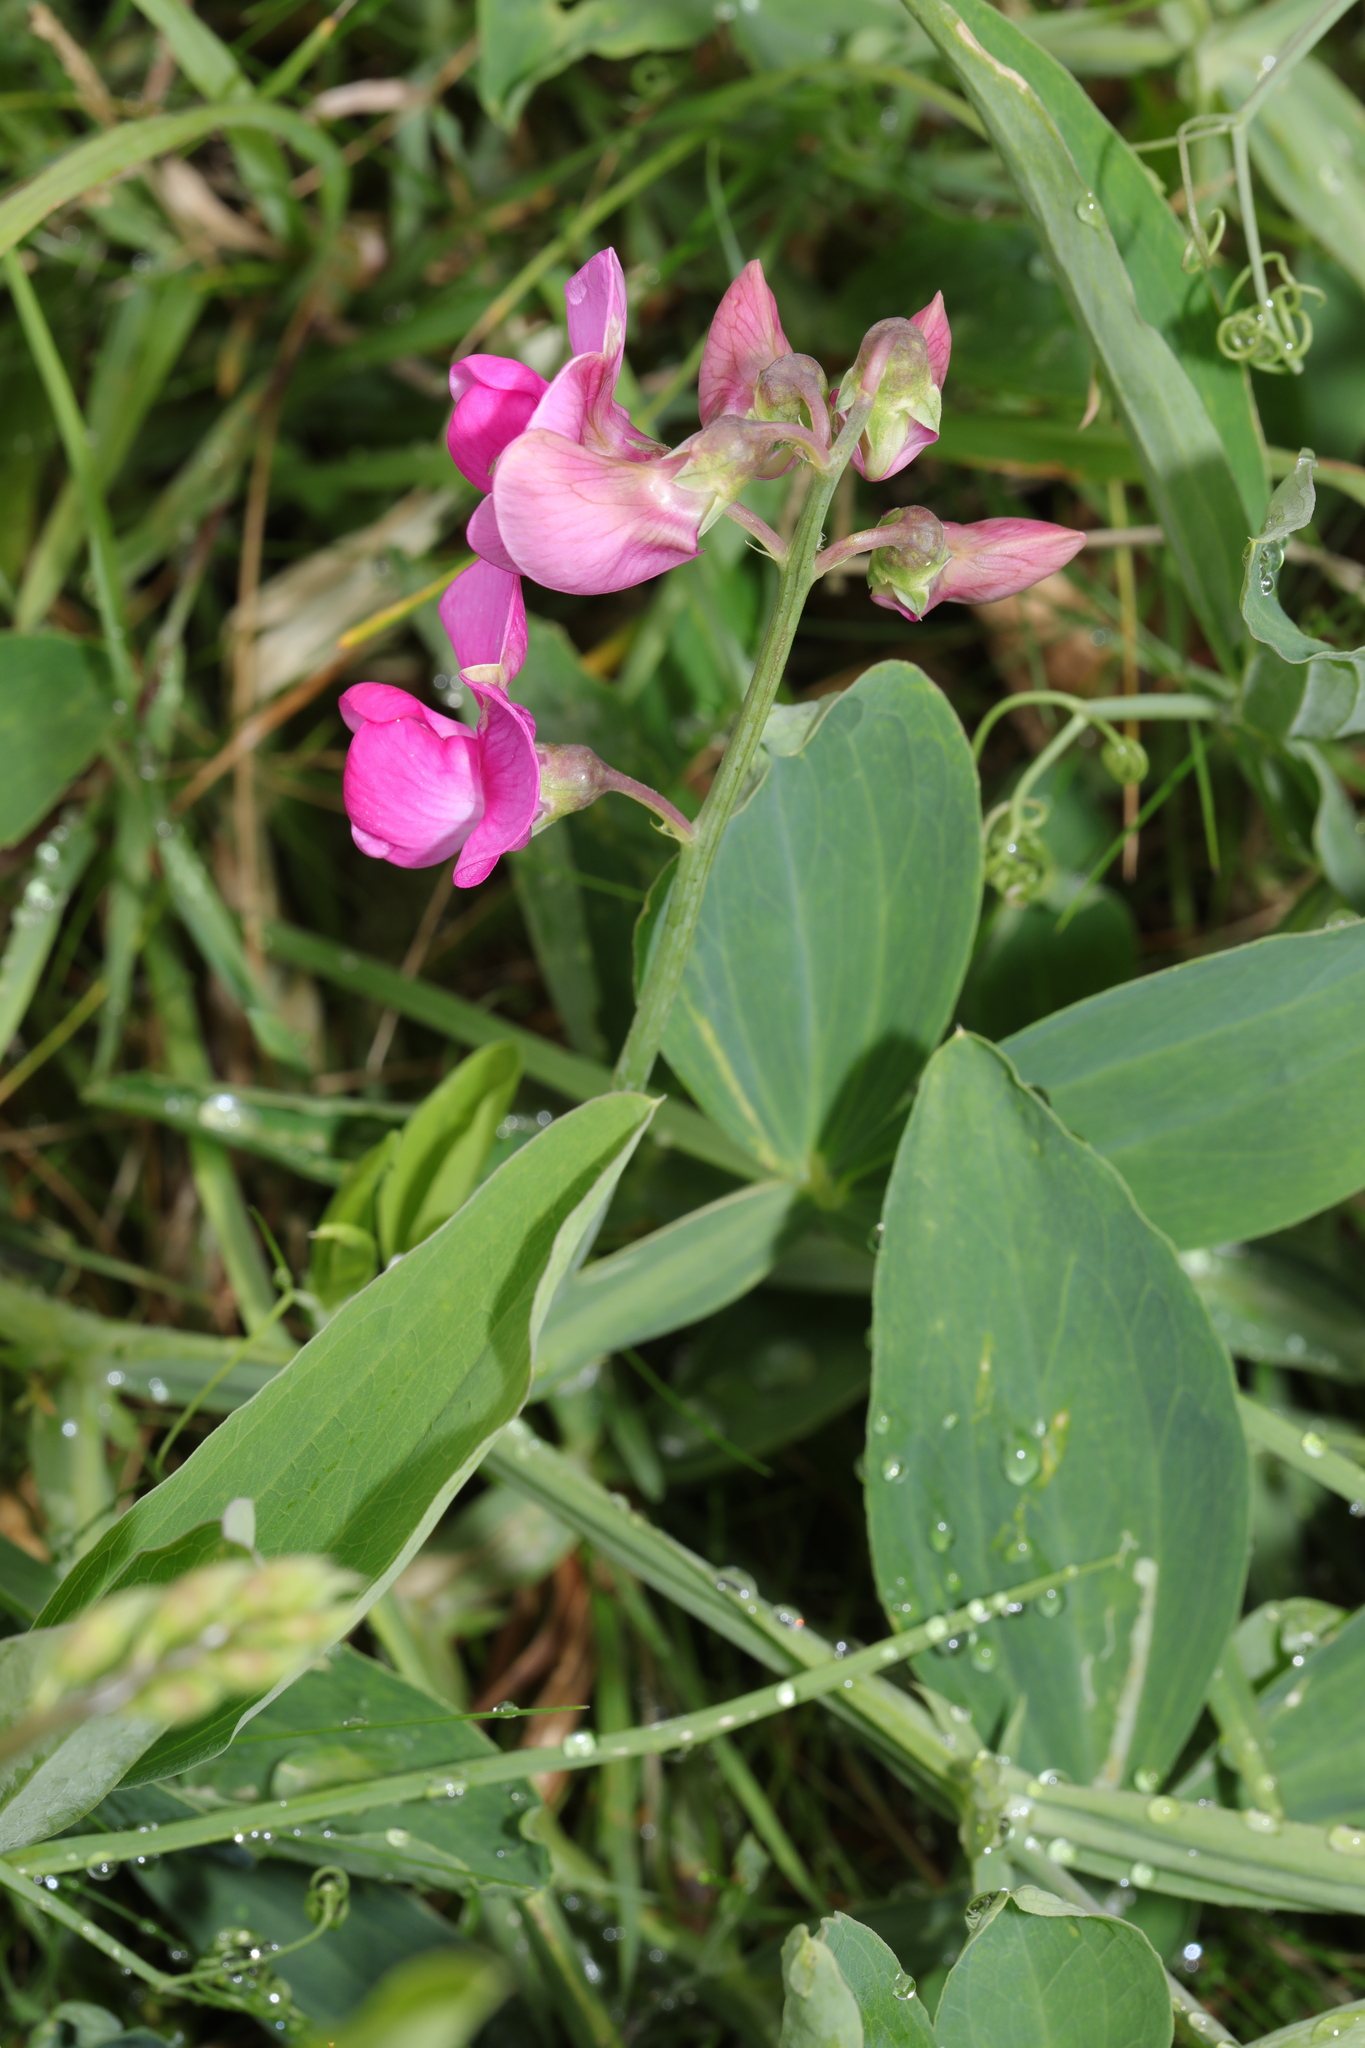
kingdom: Plantae
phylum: Tracheophyta
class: Magnoliopsida
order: Fabales
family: Fabaceae
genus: Lathyrus
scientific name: Lathyrus latifolius
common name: Perennial pea
